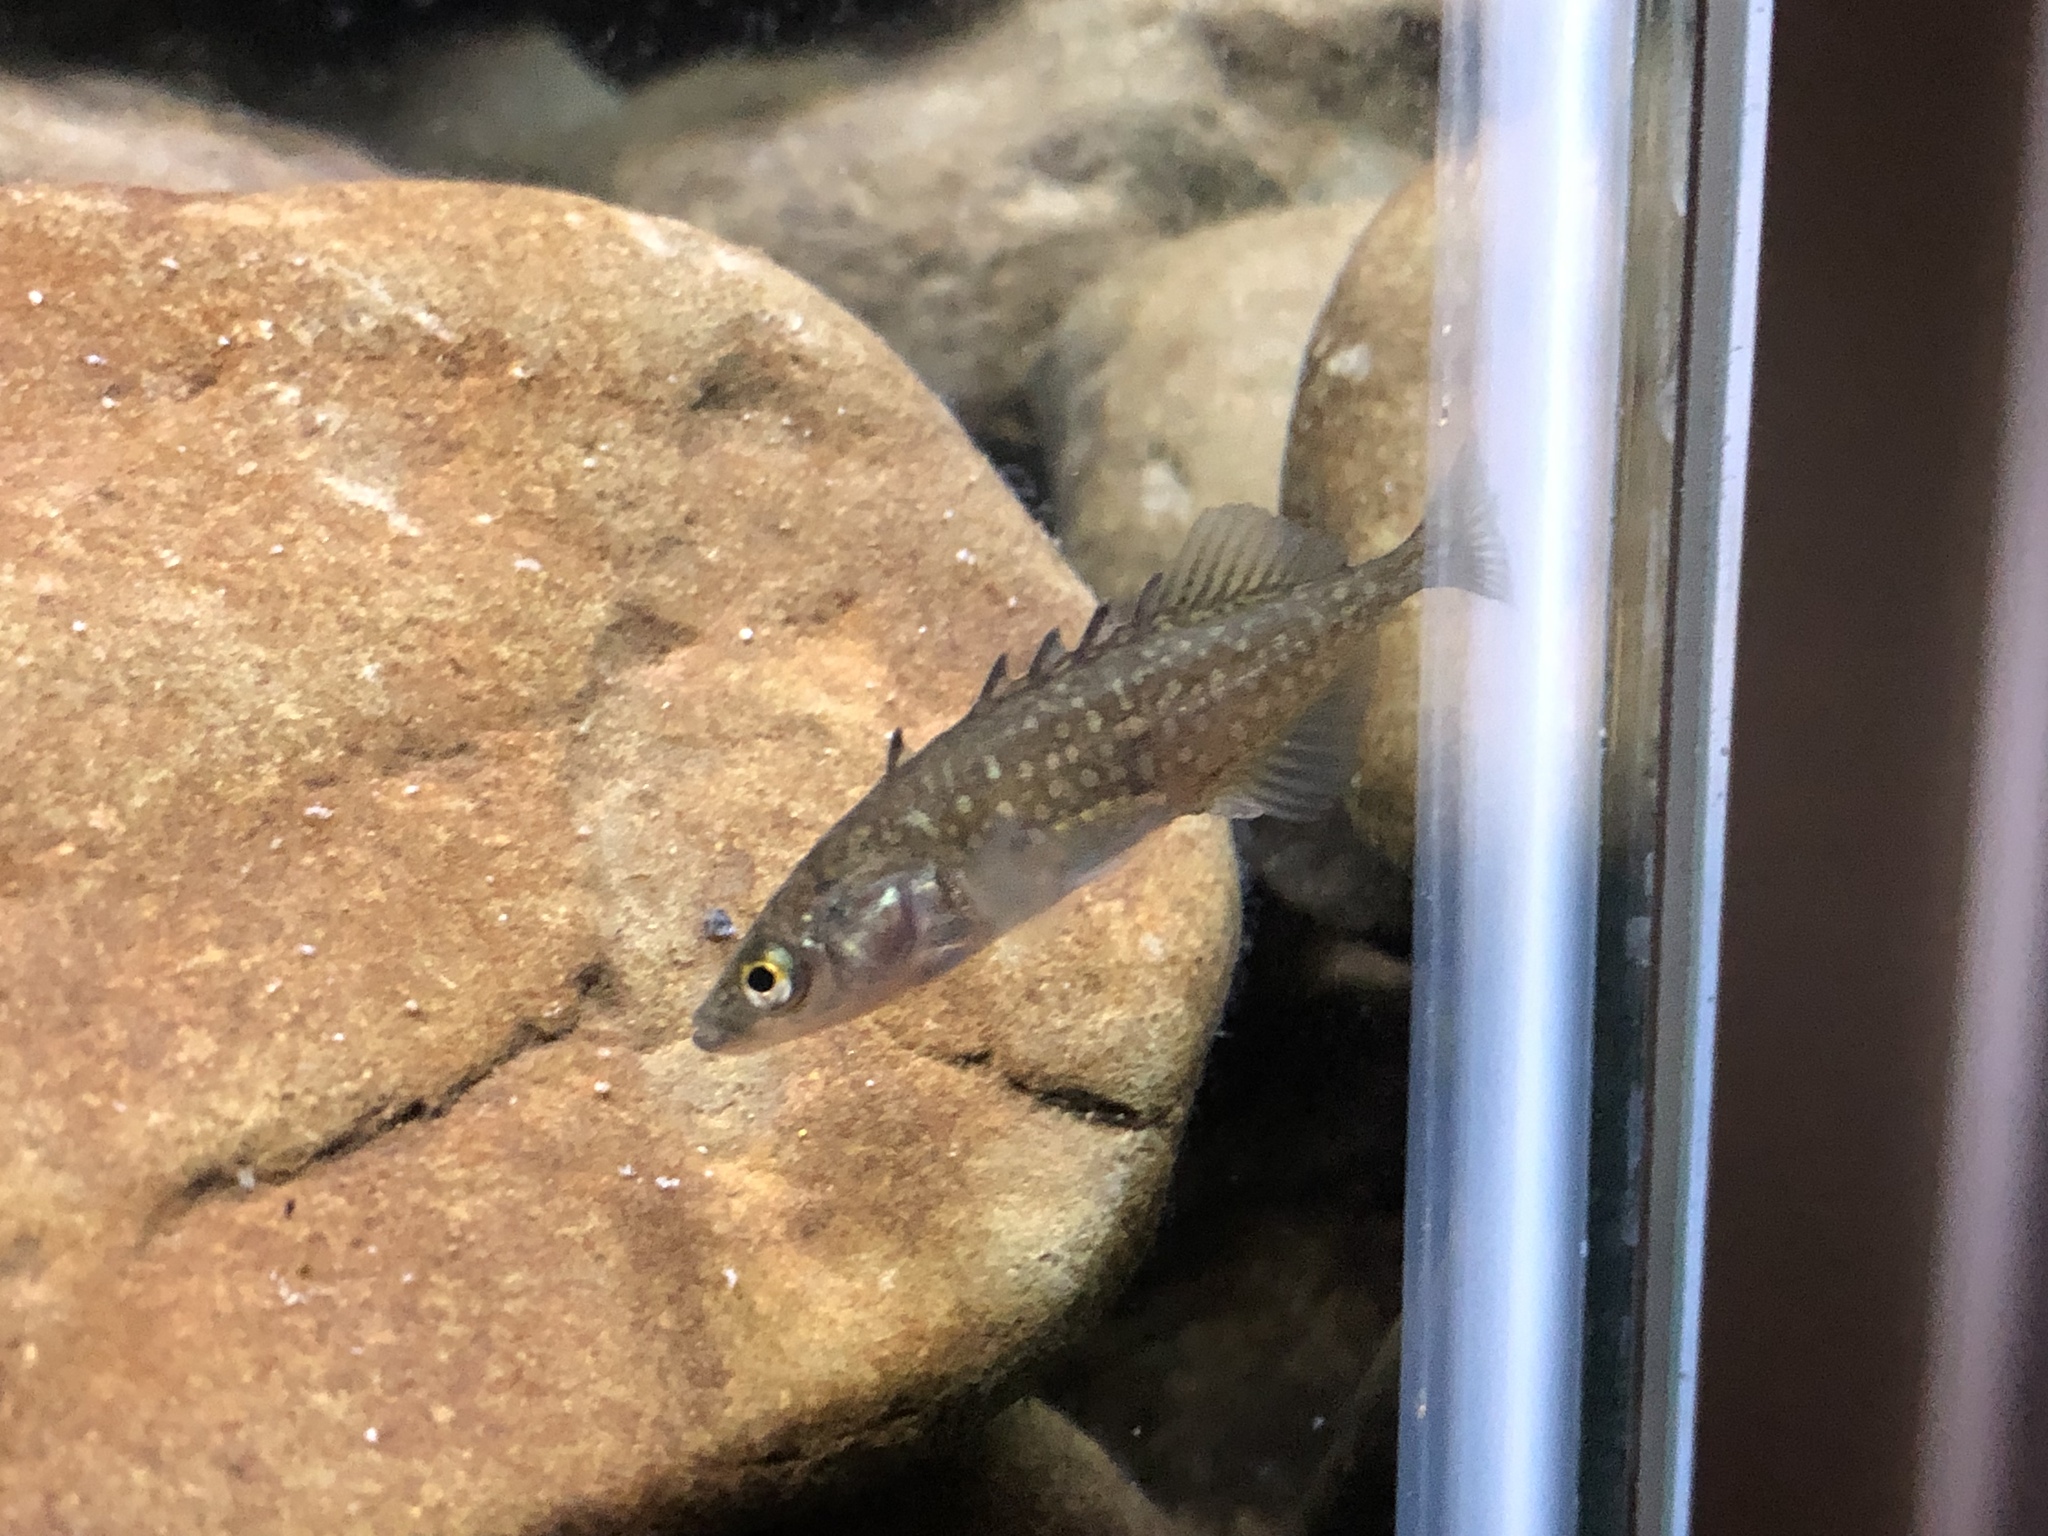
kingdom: Animalia
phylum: Chordata
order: Gasterosteiformes
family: Gasterosteidae
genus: Culaea
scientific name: Culaea inconstans
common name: Brook stickleback
